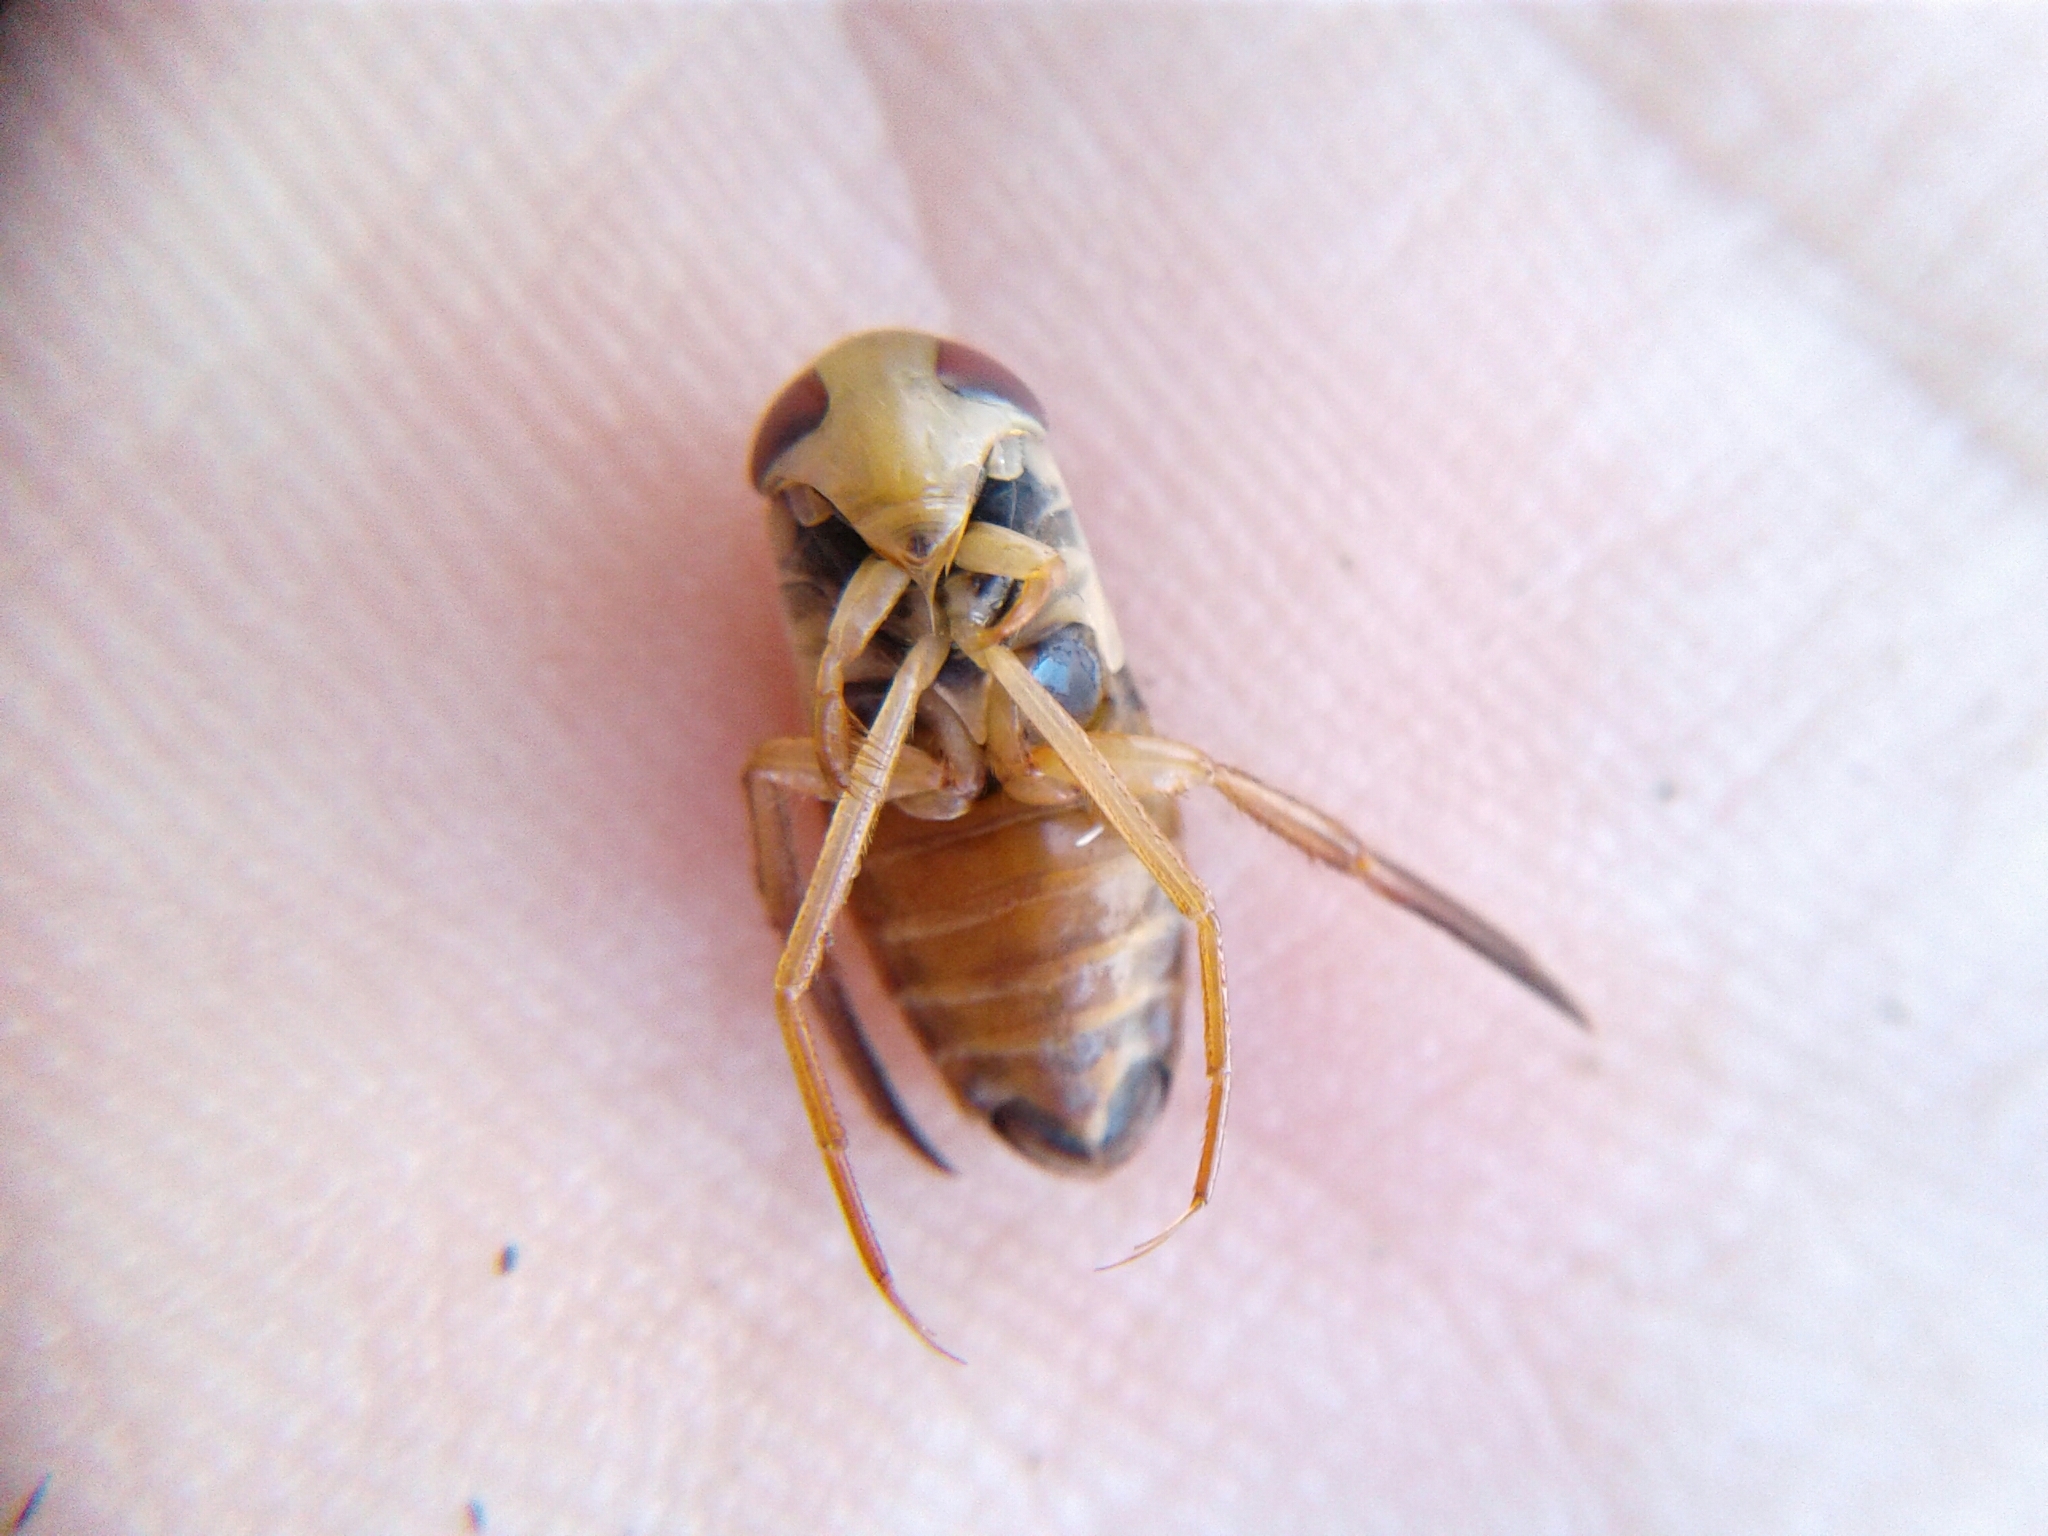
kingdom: Animalia
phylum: Arthropoda
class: Insecta
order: Hemiptera
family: Corixidae
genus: Hesperocorixa
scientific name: Hesperocorixa
